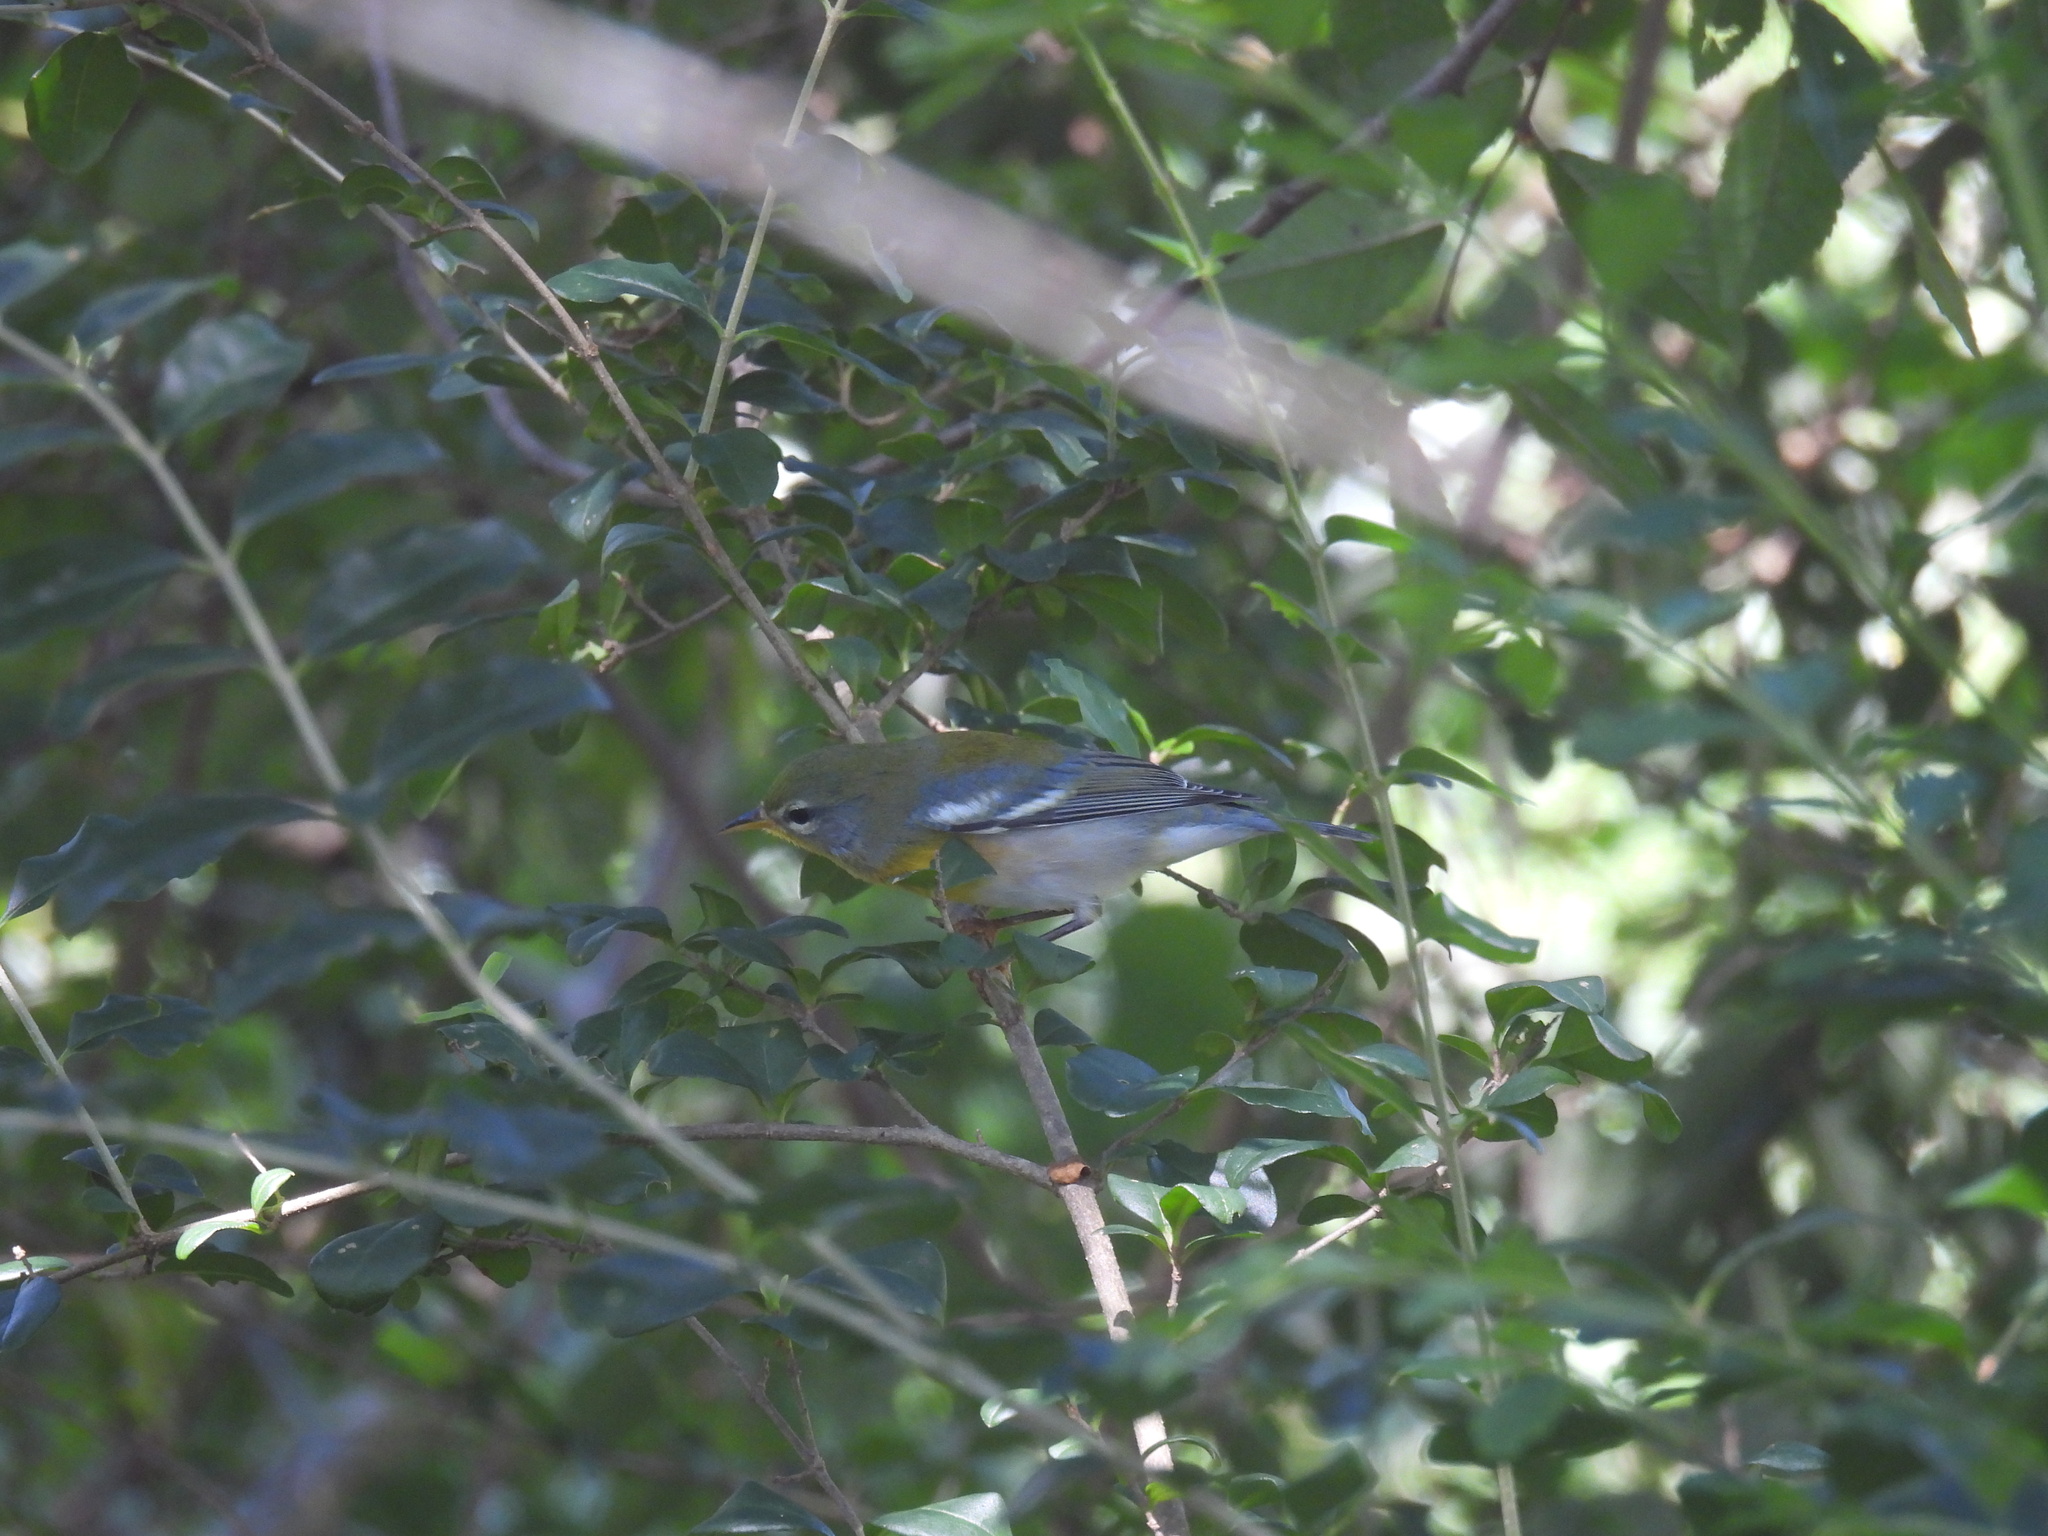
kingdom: Animalia
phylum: Chordata
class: Aves
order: Passeriformes
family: Parulidae
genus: Setophaga
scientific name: Setophaga americana
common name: Northern parula
